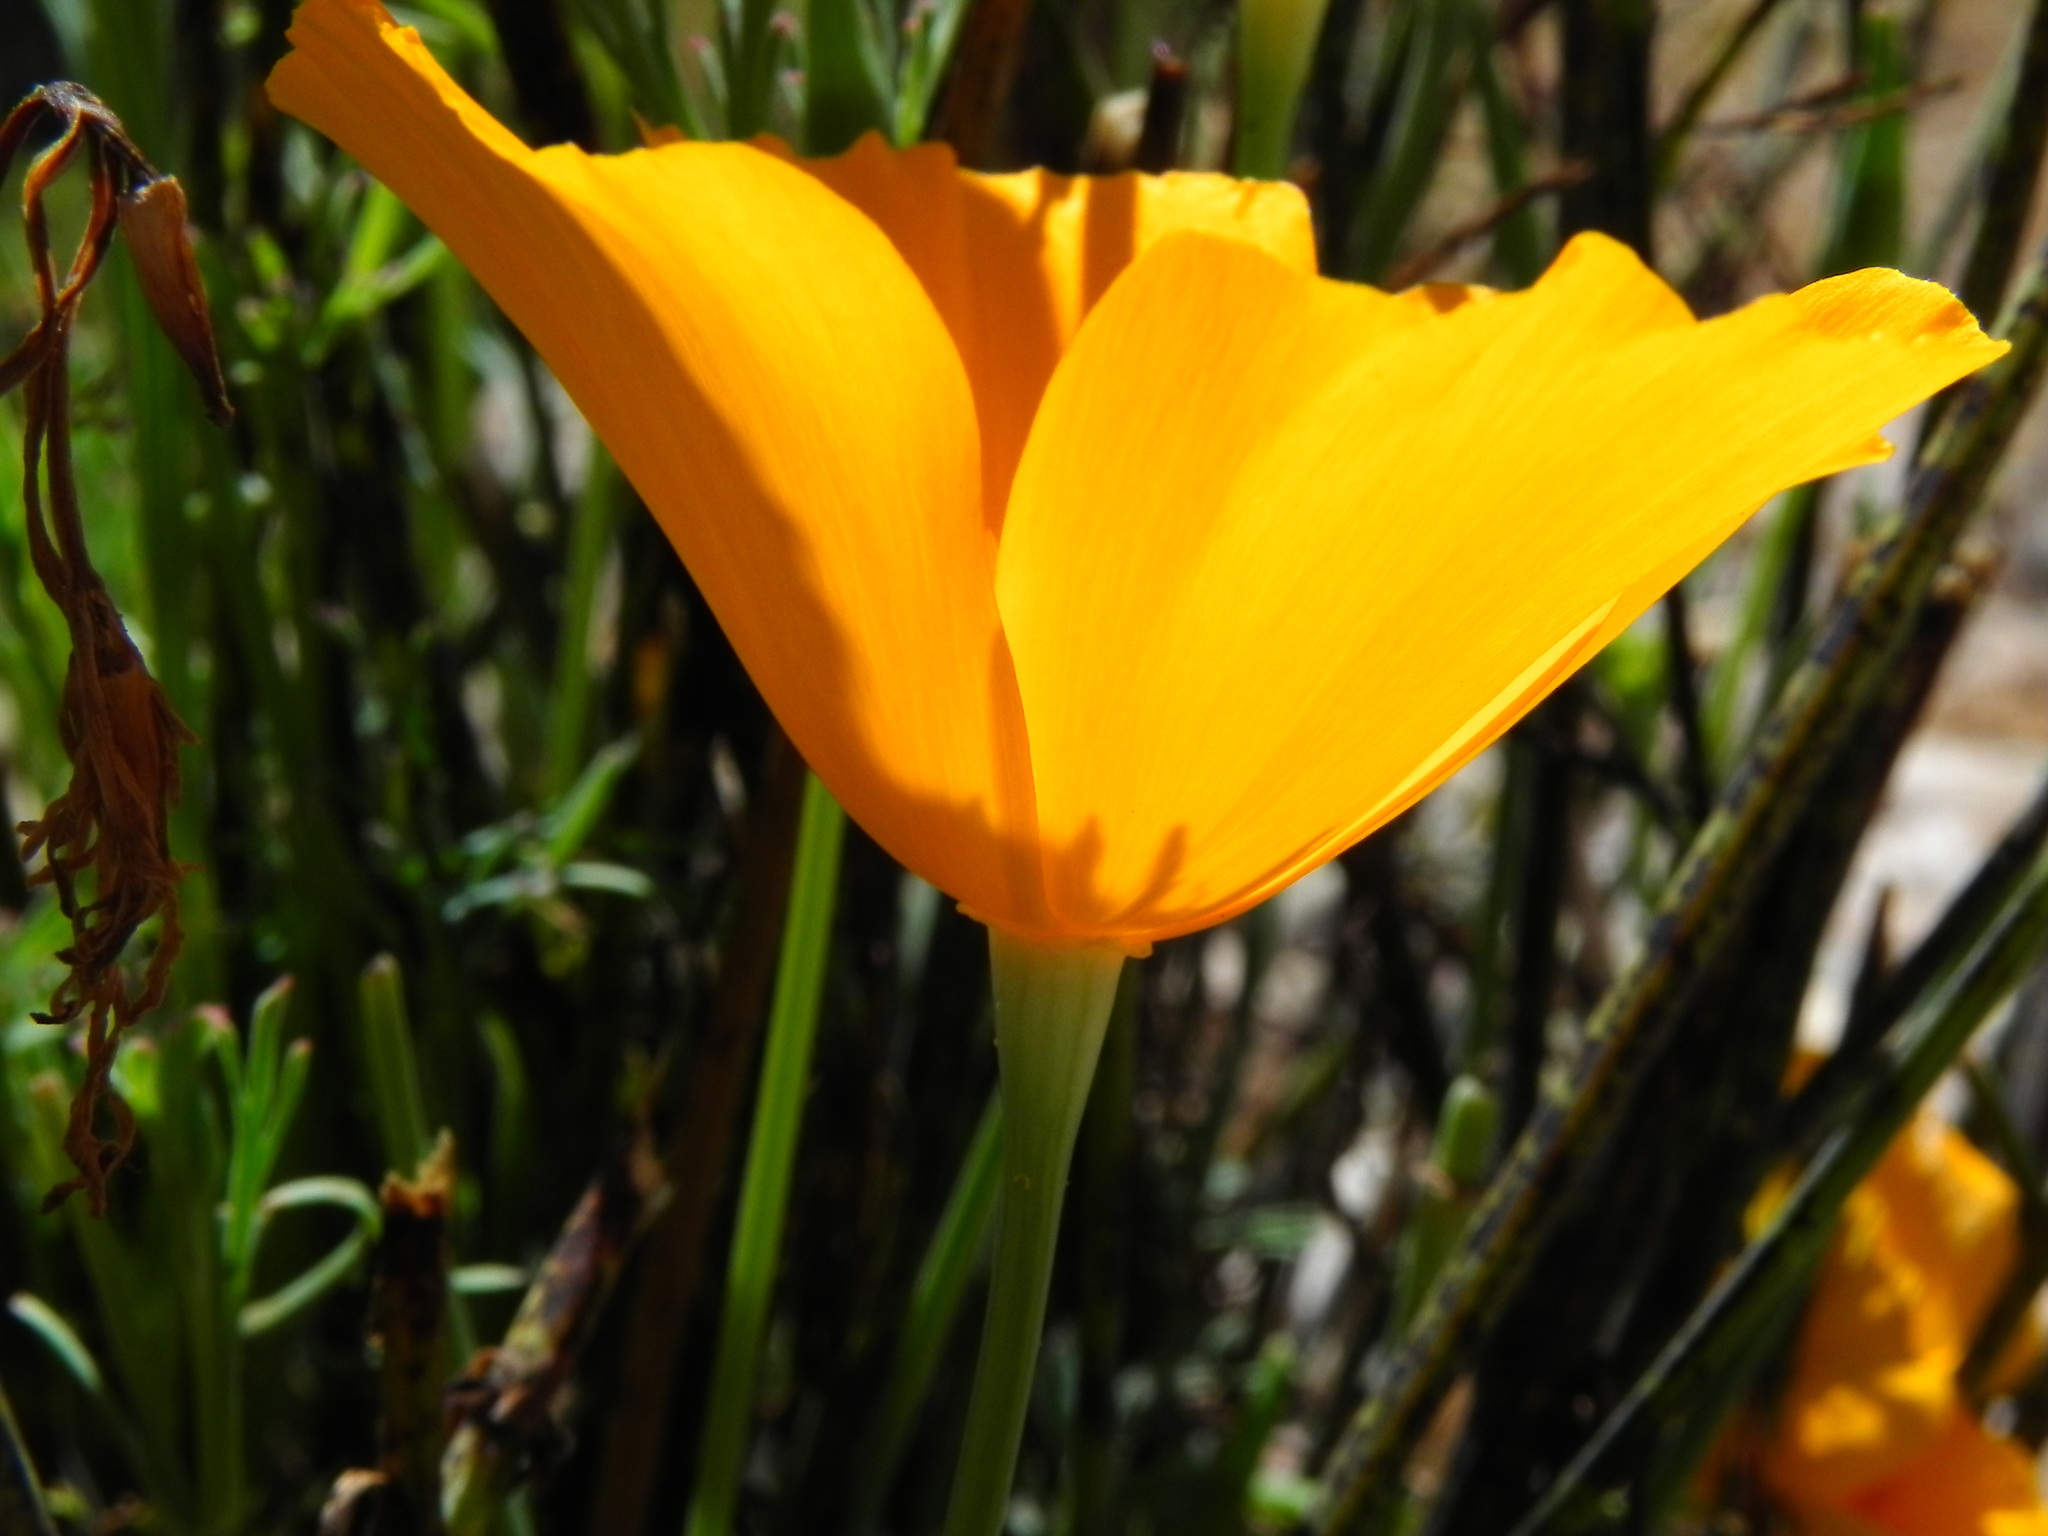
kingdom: Plantae
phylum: Tracheophyta
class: Magnoliopsida
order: Ranunculales
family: Papaveraceae
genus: Eschscholzia
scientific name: Eschscholzia californica
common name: California poppy
